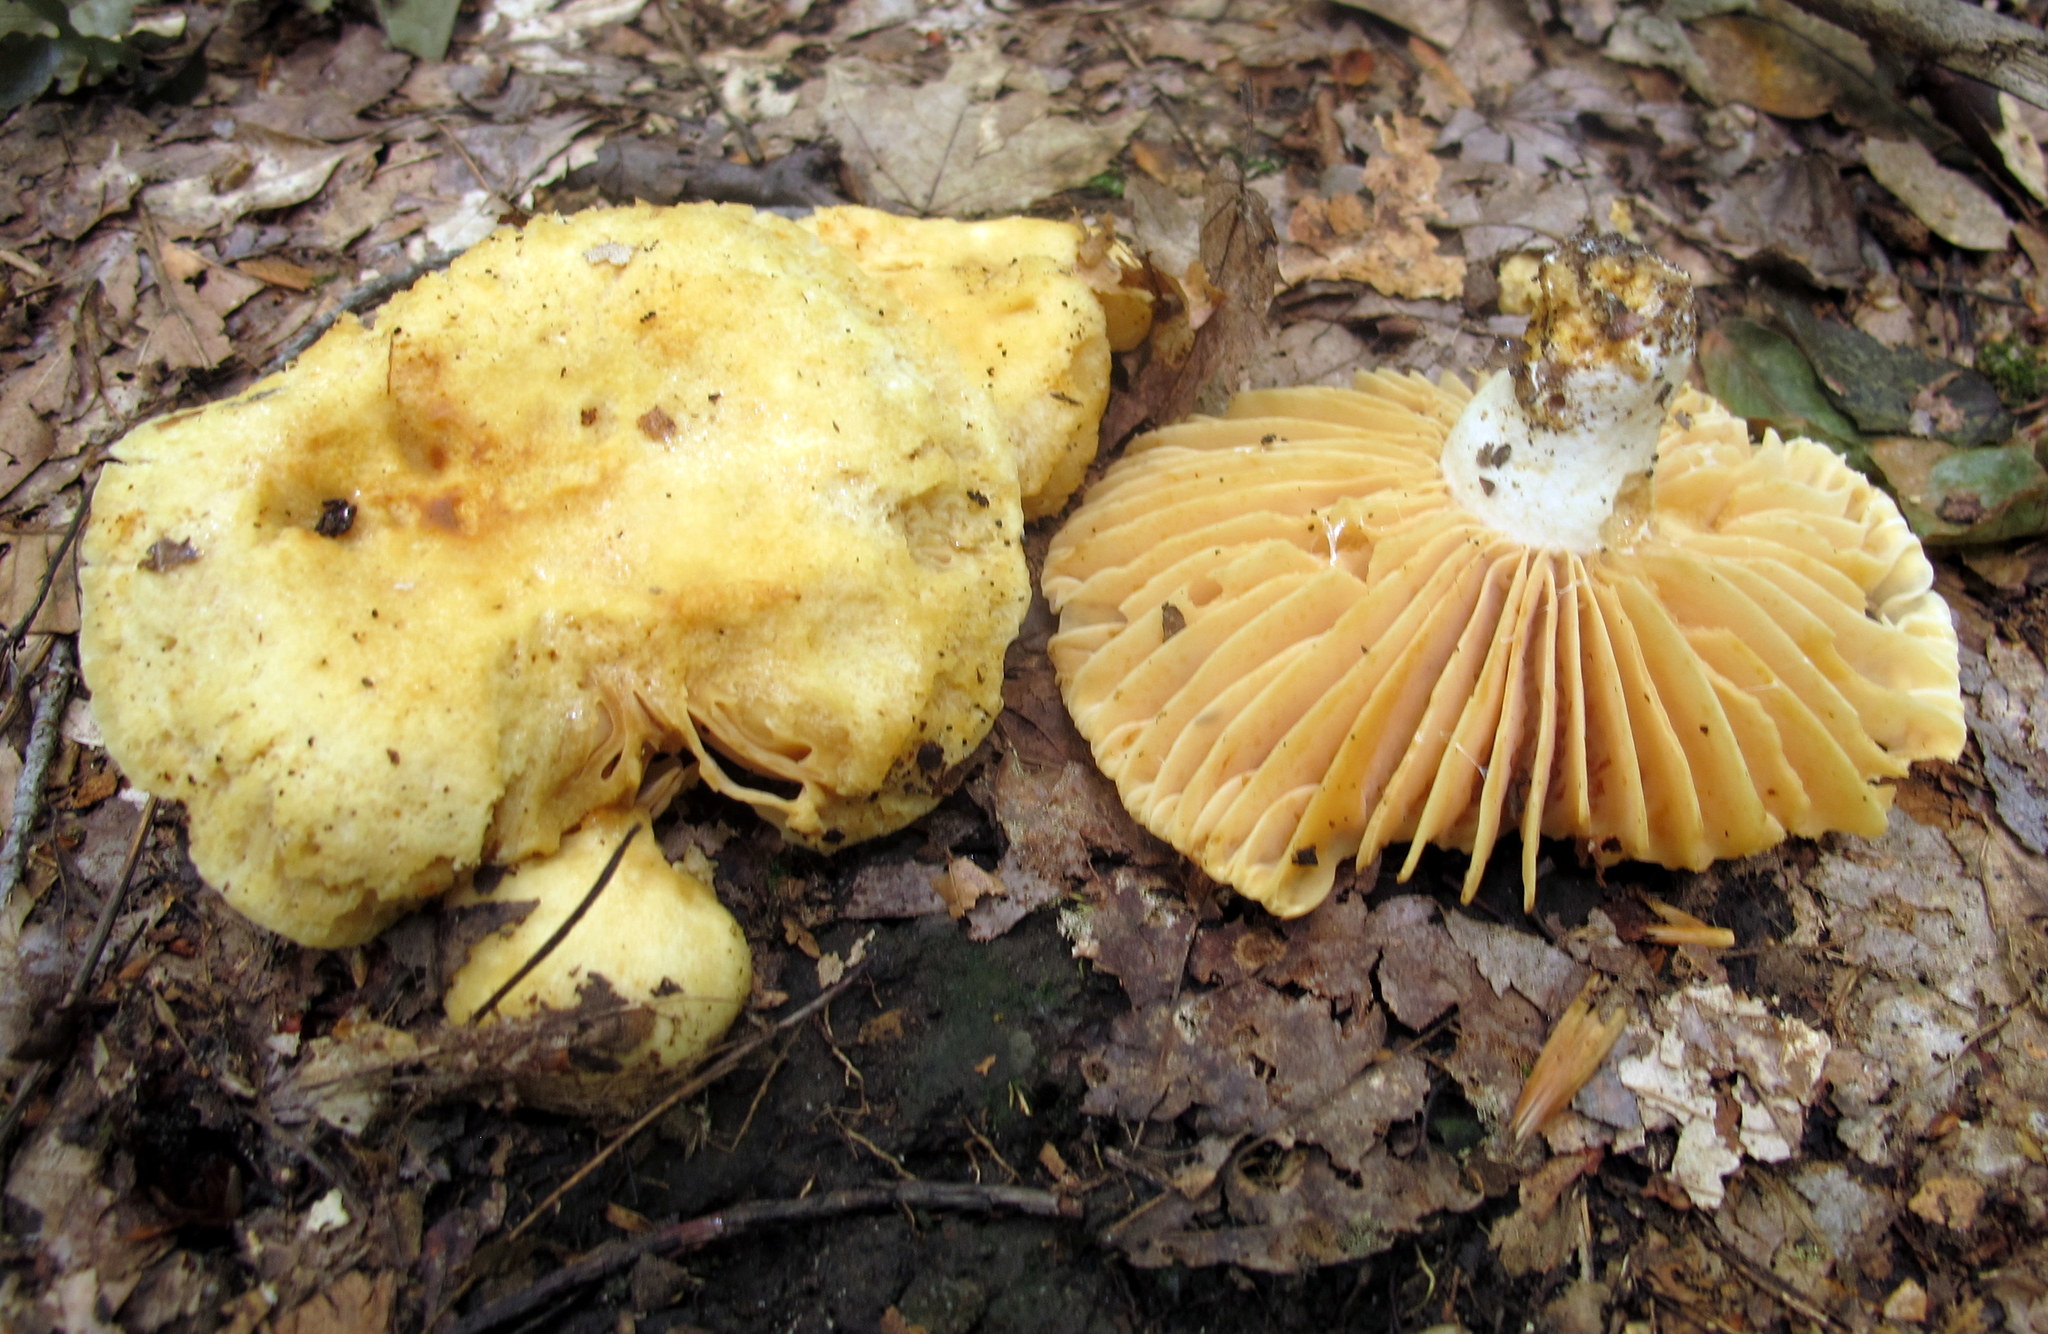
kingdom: Fungi
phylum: Basidiomycota
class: Agaricomycetes
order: Russulales
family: Russulaceae
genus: Russula
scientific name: Russula earlei
